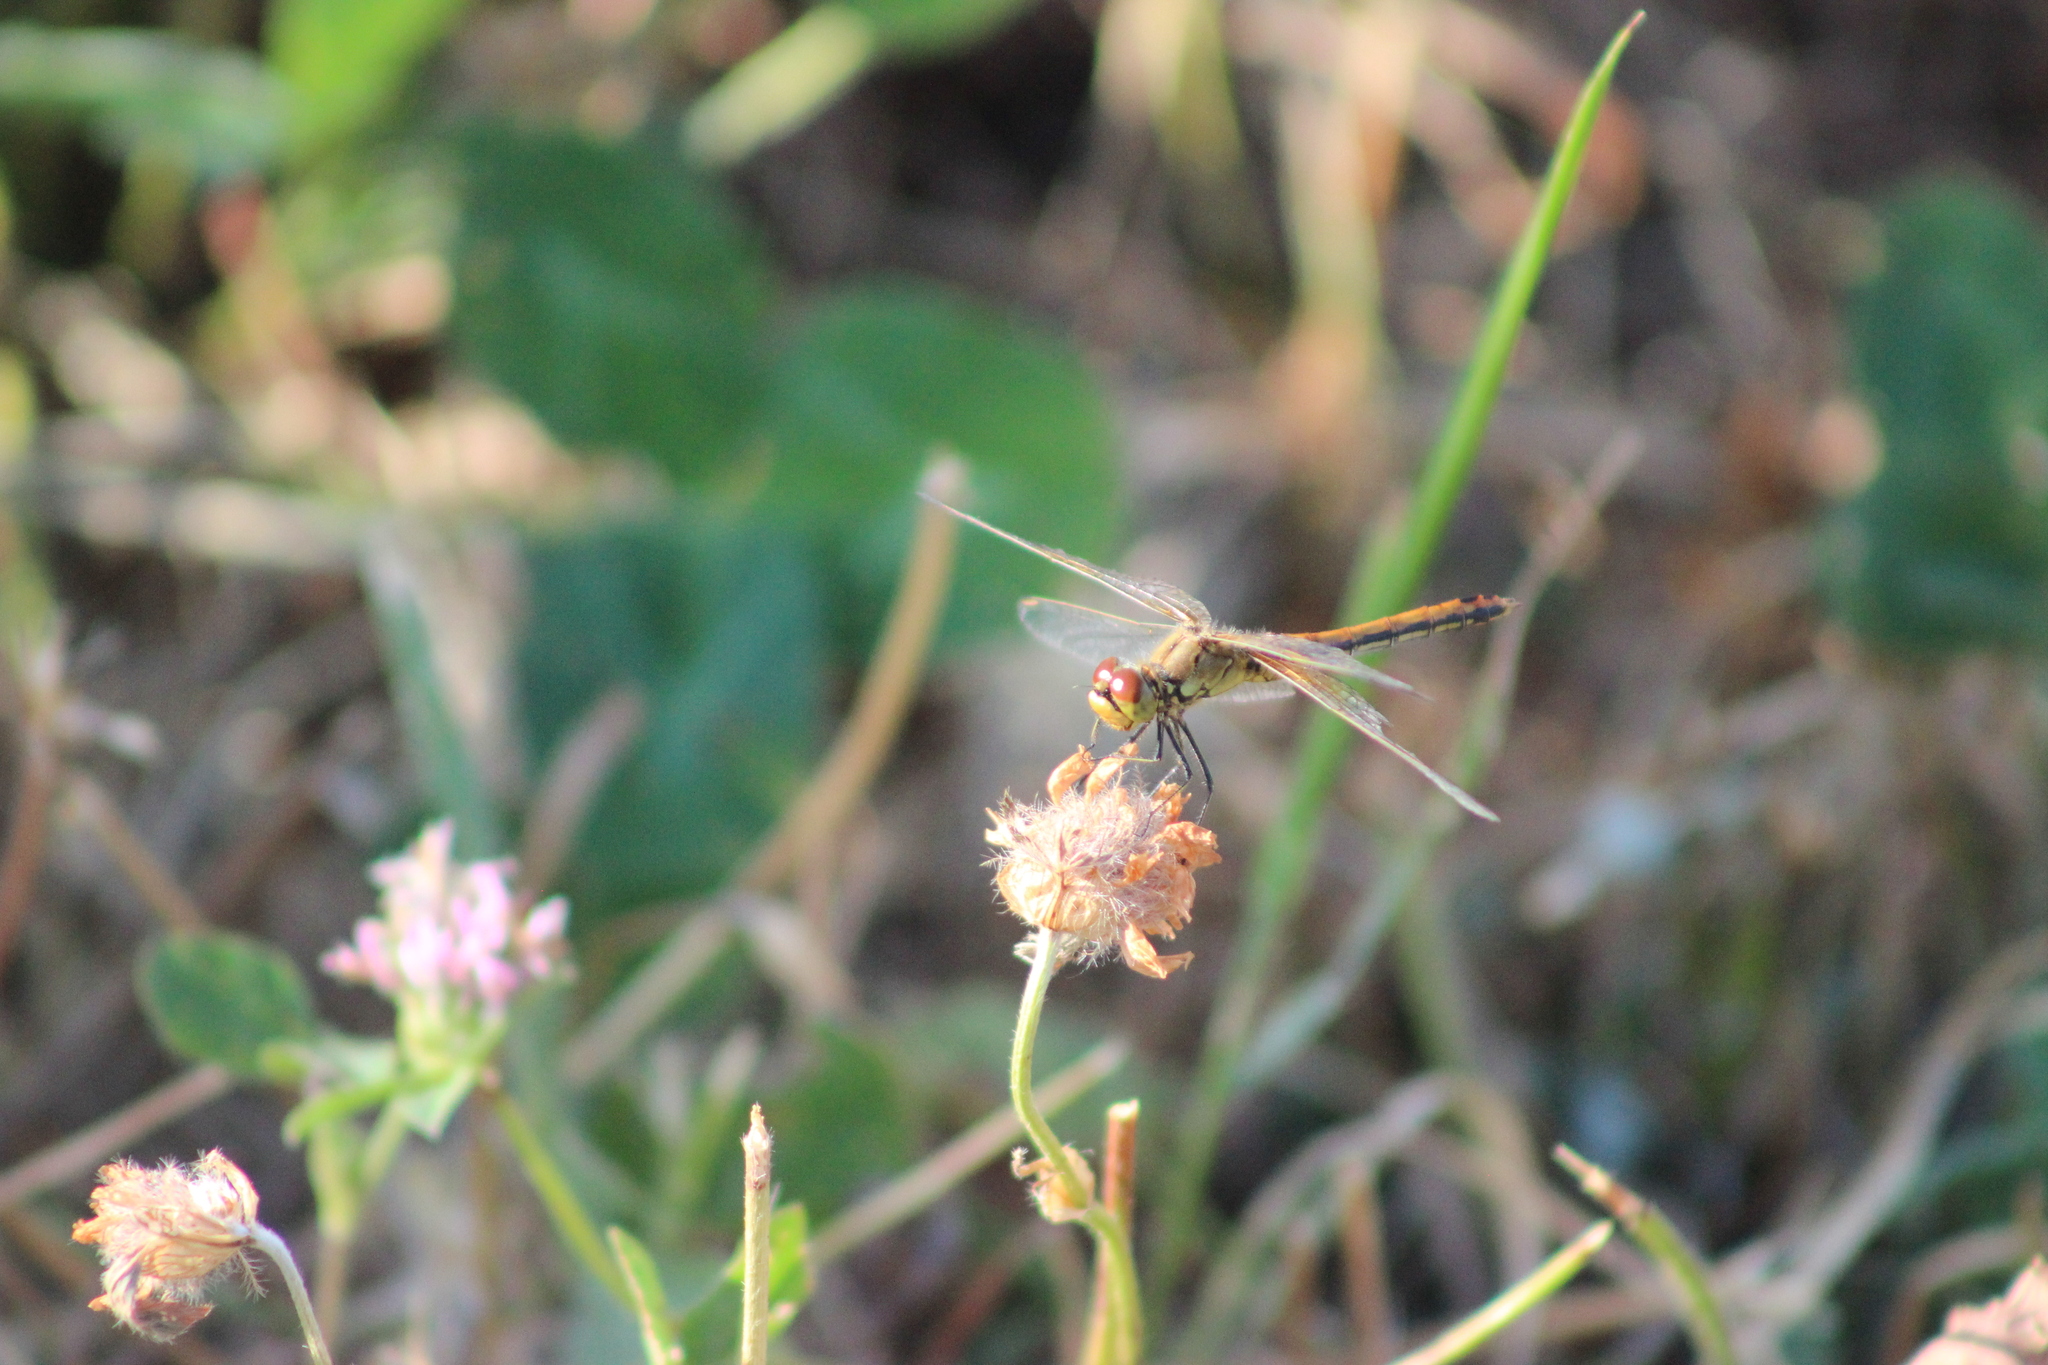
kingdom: Animalia
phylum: Arthropoda
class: Insecta
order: Odonata
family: Libellulidae
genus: Sympetrum
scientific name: Sympetrum flaveolum
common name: Yellow-winged darter
